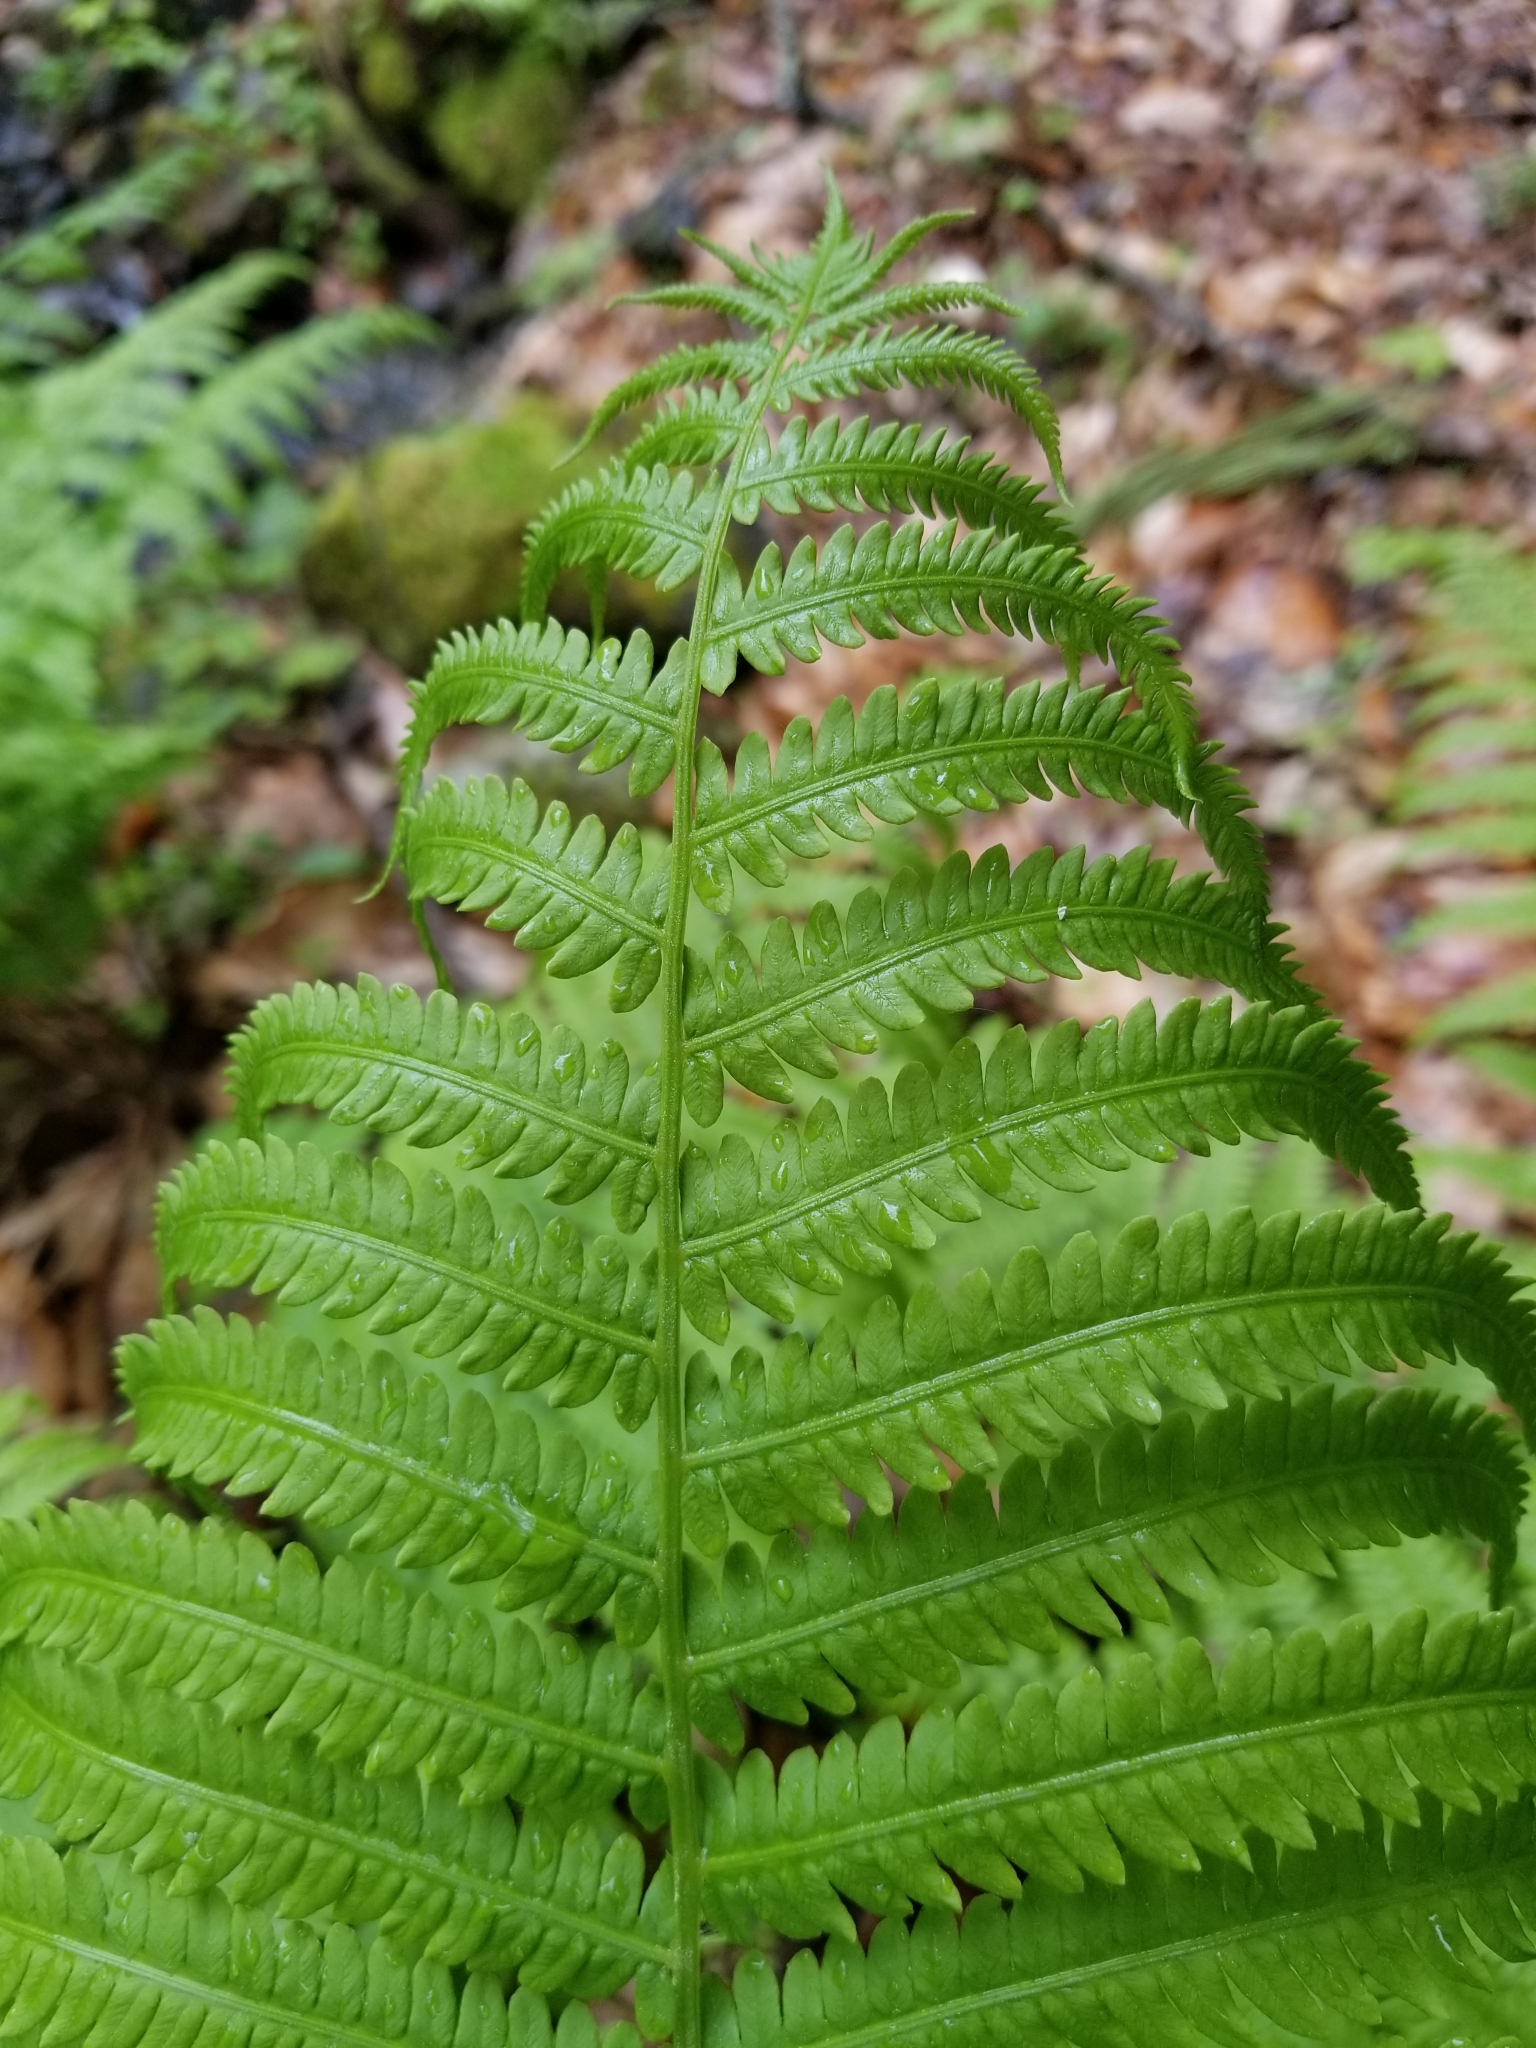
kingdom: Plantae
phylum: Tracheophyta
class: Polypodiopsida
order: Polypodiales
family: Onocleaceae
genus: Matteuccia
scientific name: Matteuccia struthiopteris
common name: Ostrich fern
